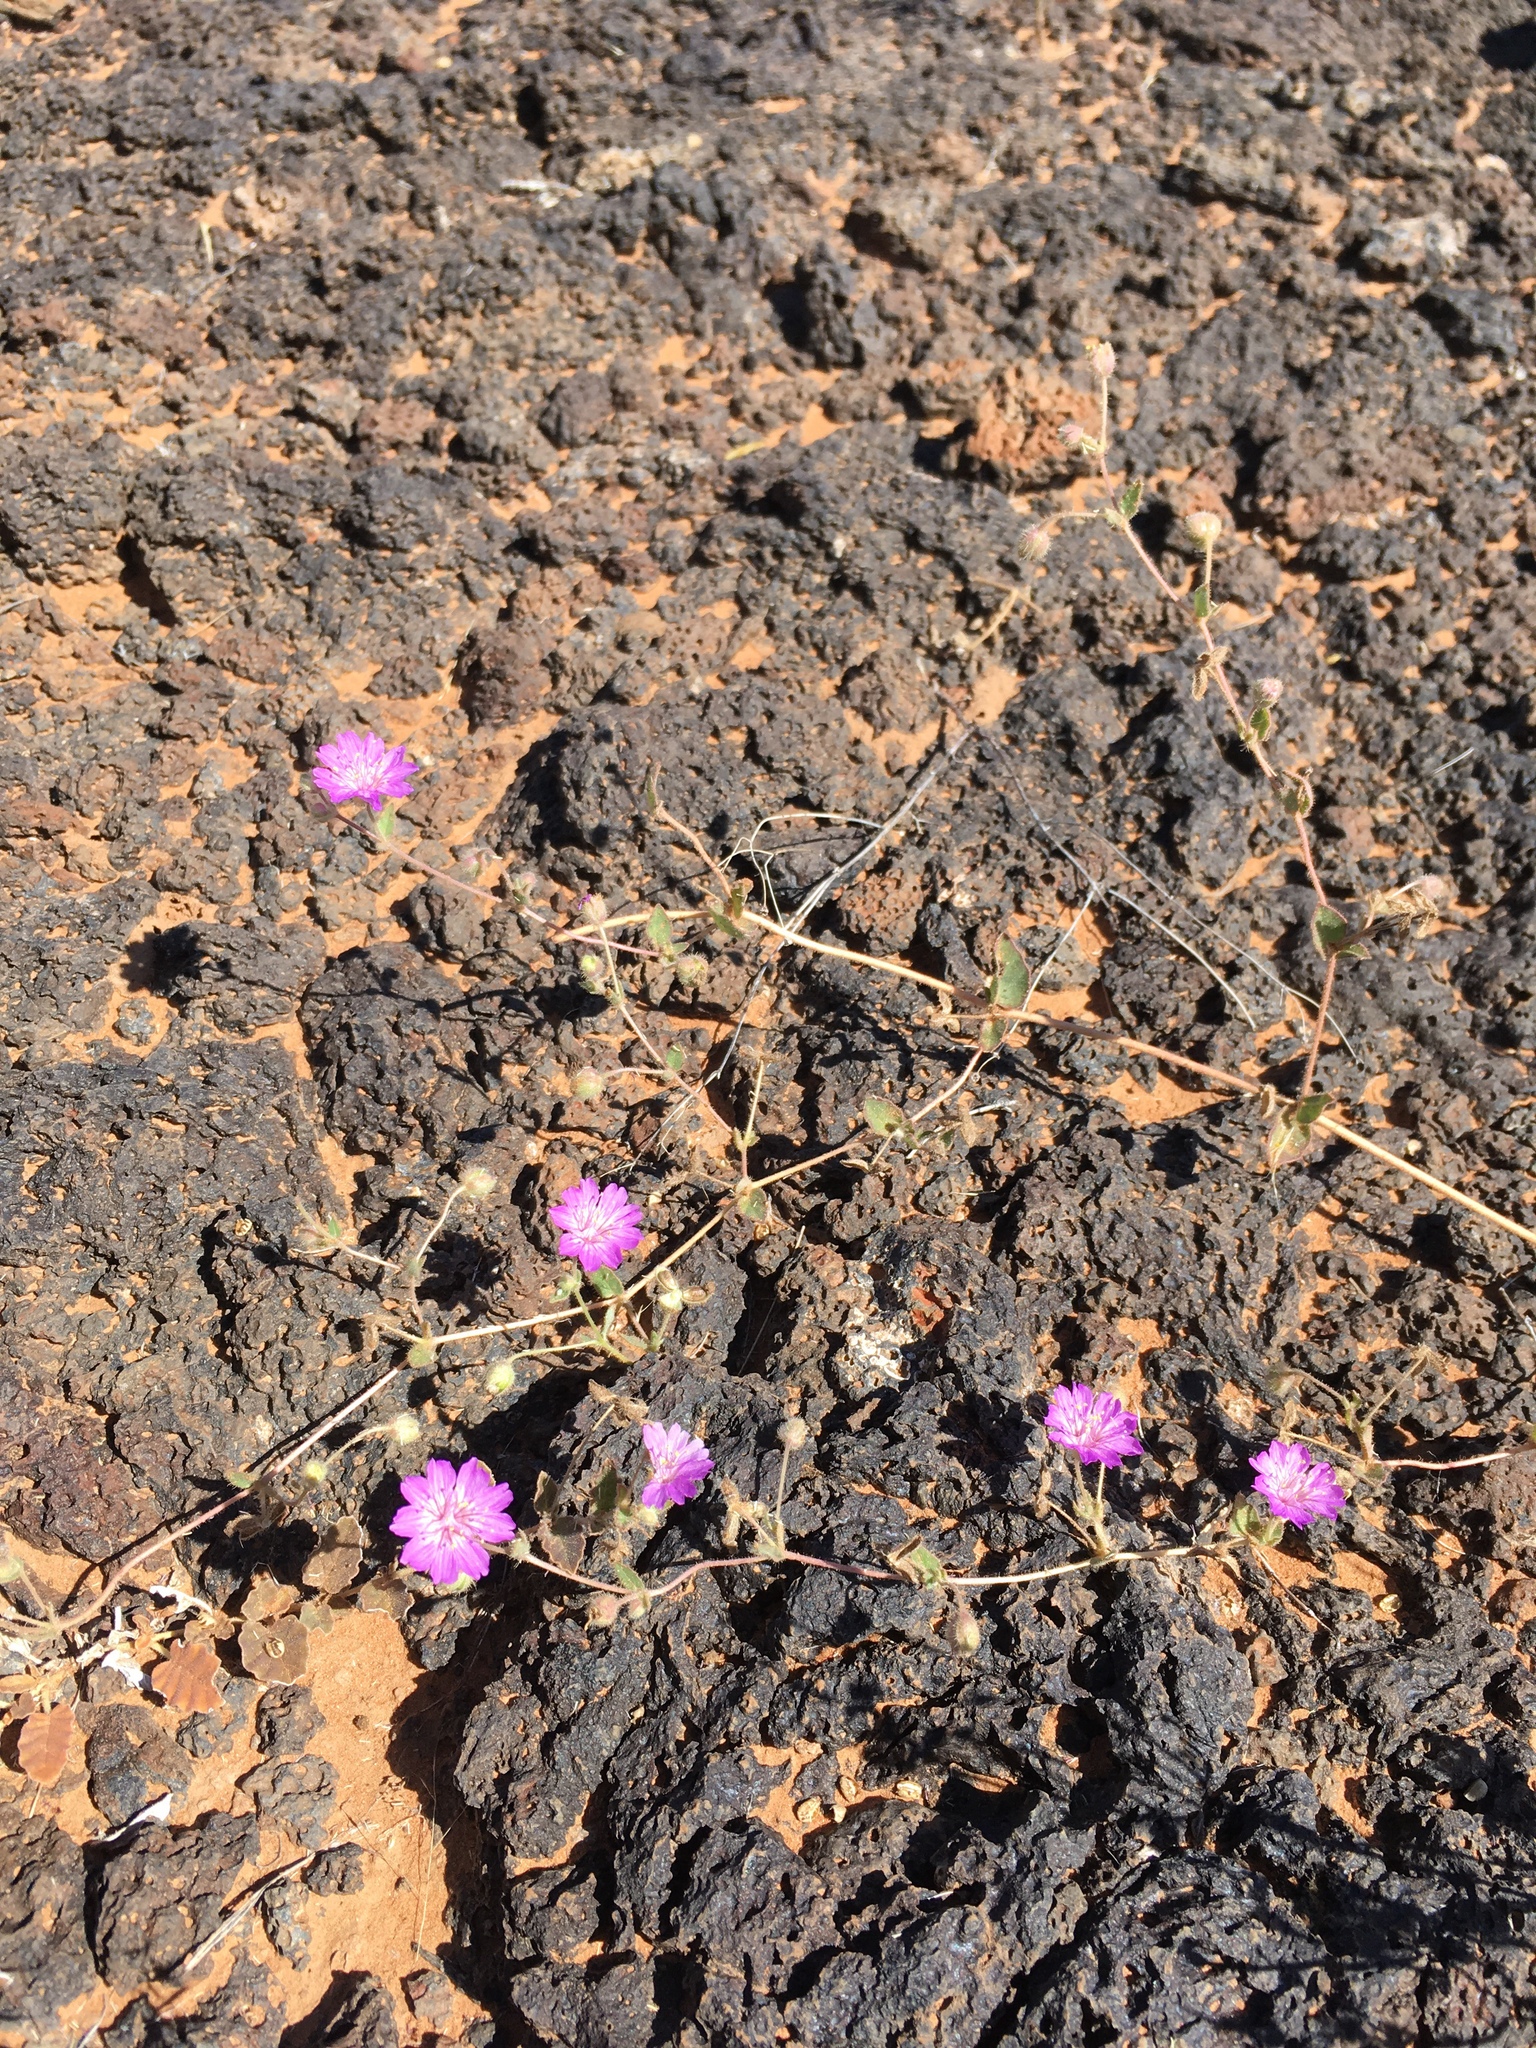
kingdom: Plantae
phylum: Tracheophyta
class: Magnoliopsida
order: Caryophyllales
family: Nyctaginaceae
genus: Allionia
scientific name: Allionia incarnata
